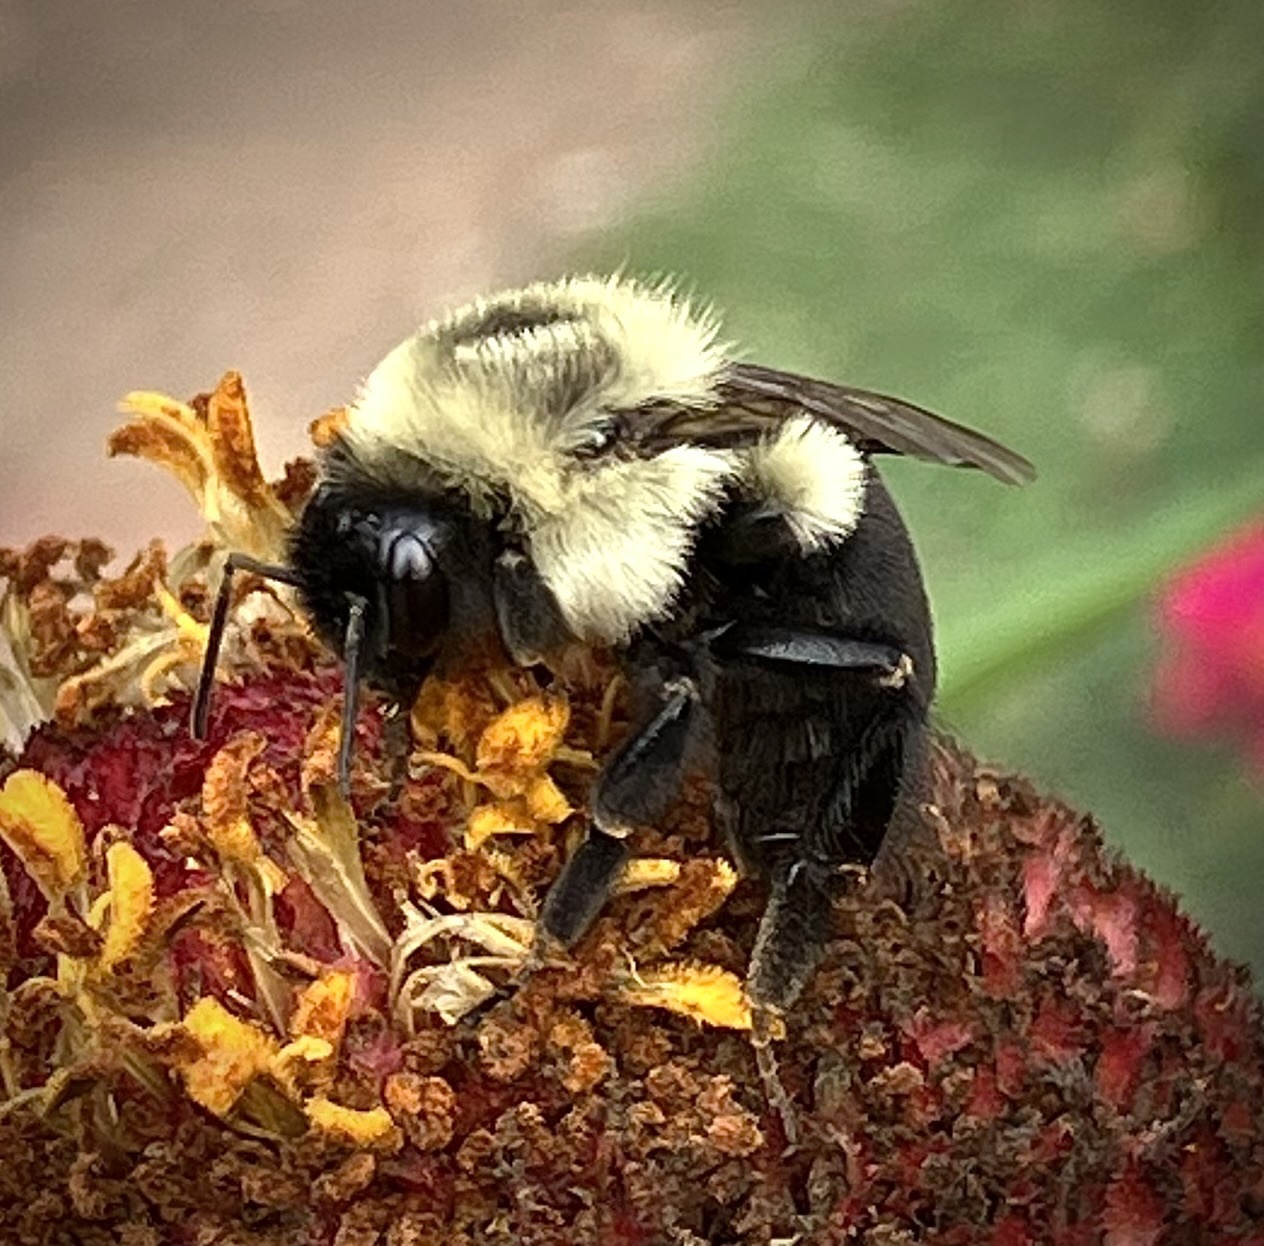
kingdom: Animalia
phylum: Arthropoda
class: Insecta
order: Hymenoptera
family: Apidae
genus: Bombus
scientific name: Bombus impatiens
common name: Common eastern bumble bee
